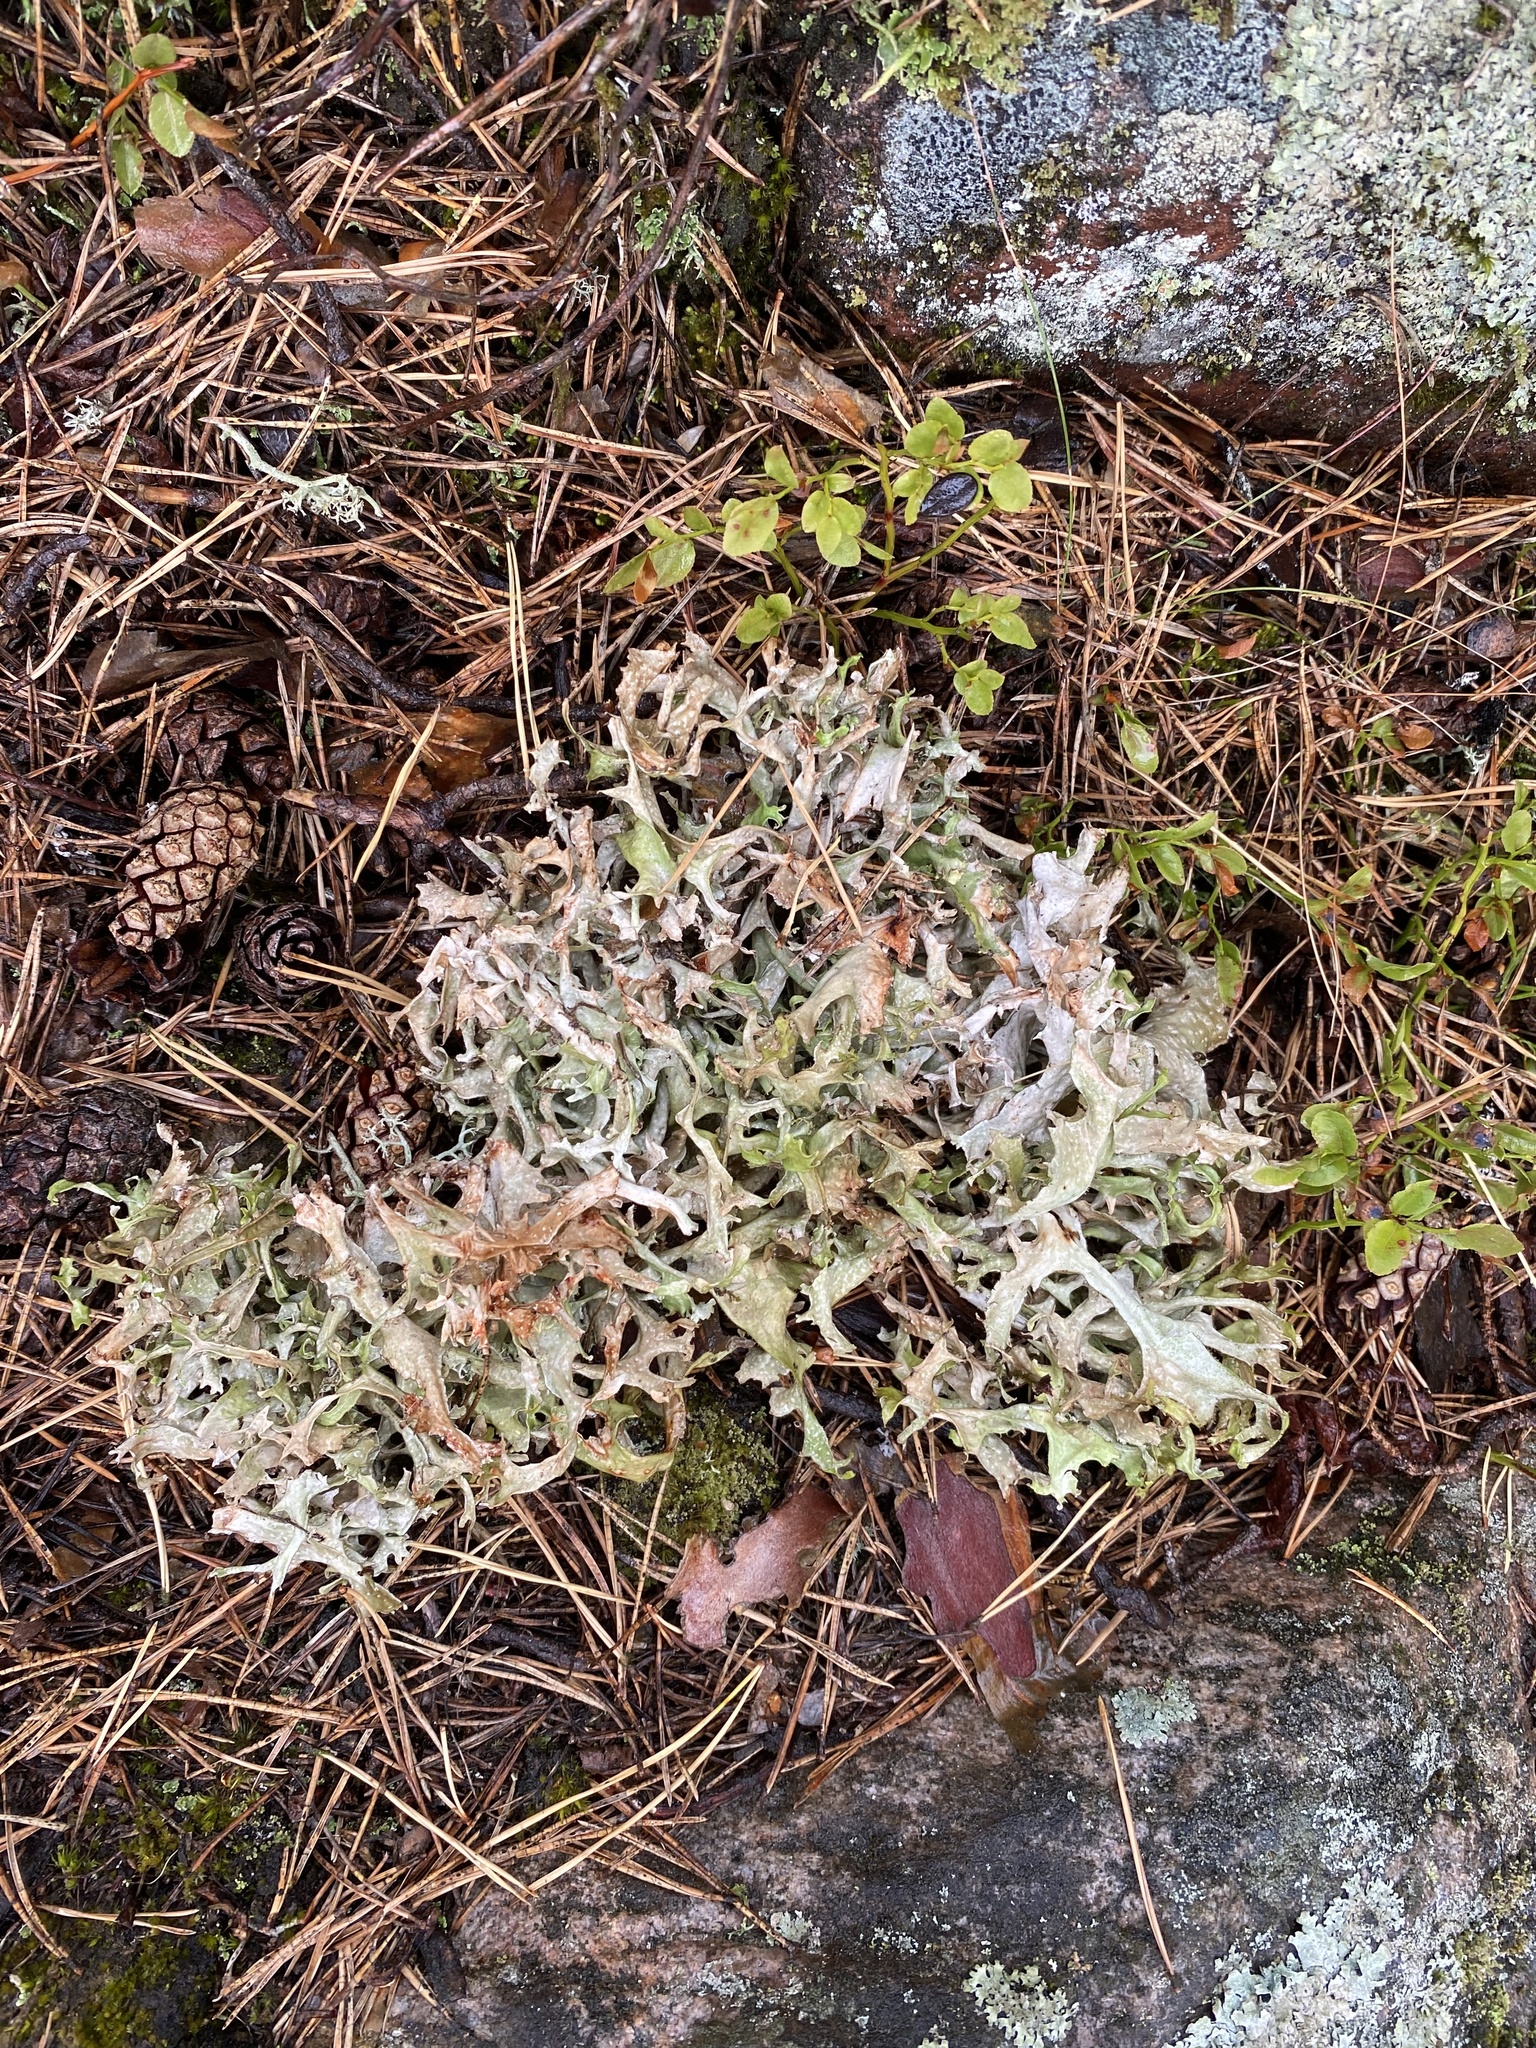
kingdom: Fungi
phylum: Ascomycota
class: Lecanoromycetes
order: Lecanorales
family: Parmeliaceae
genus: Cetraria
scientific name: Cetraria islandica
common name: Iceland lichen
